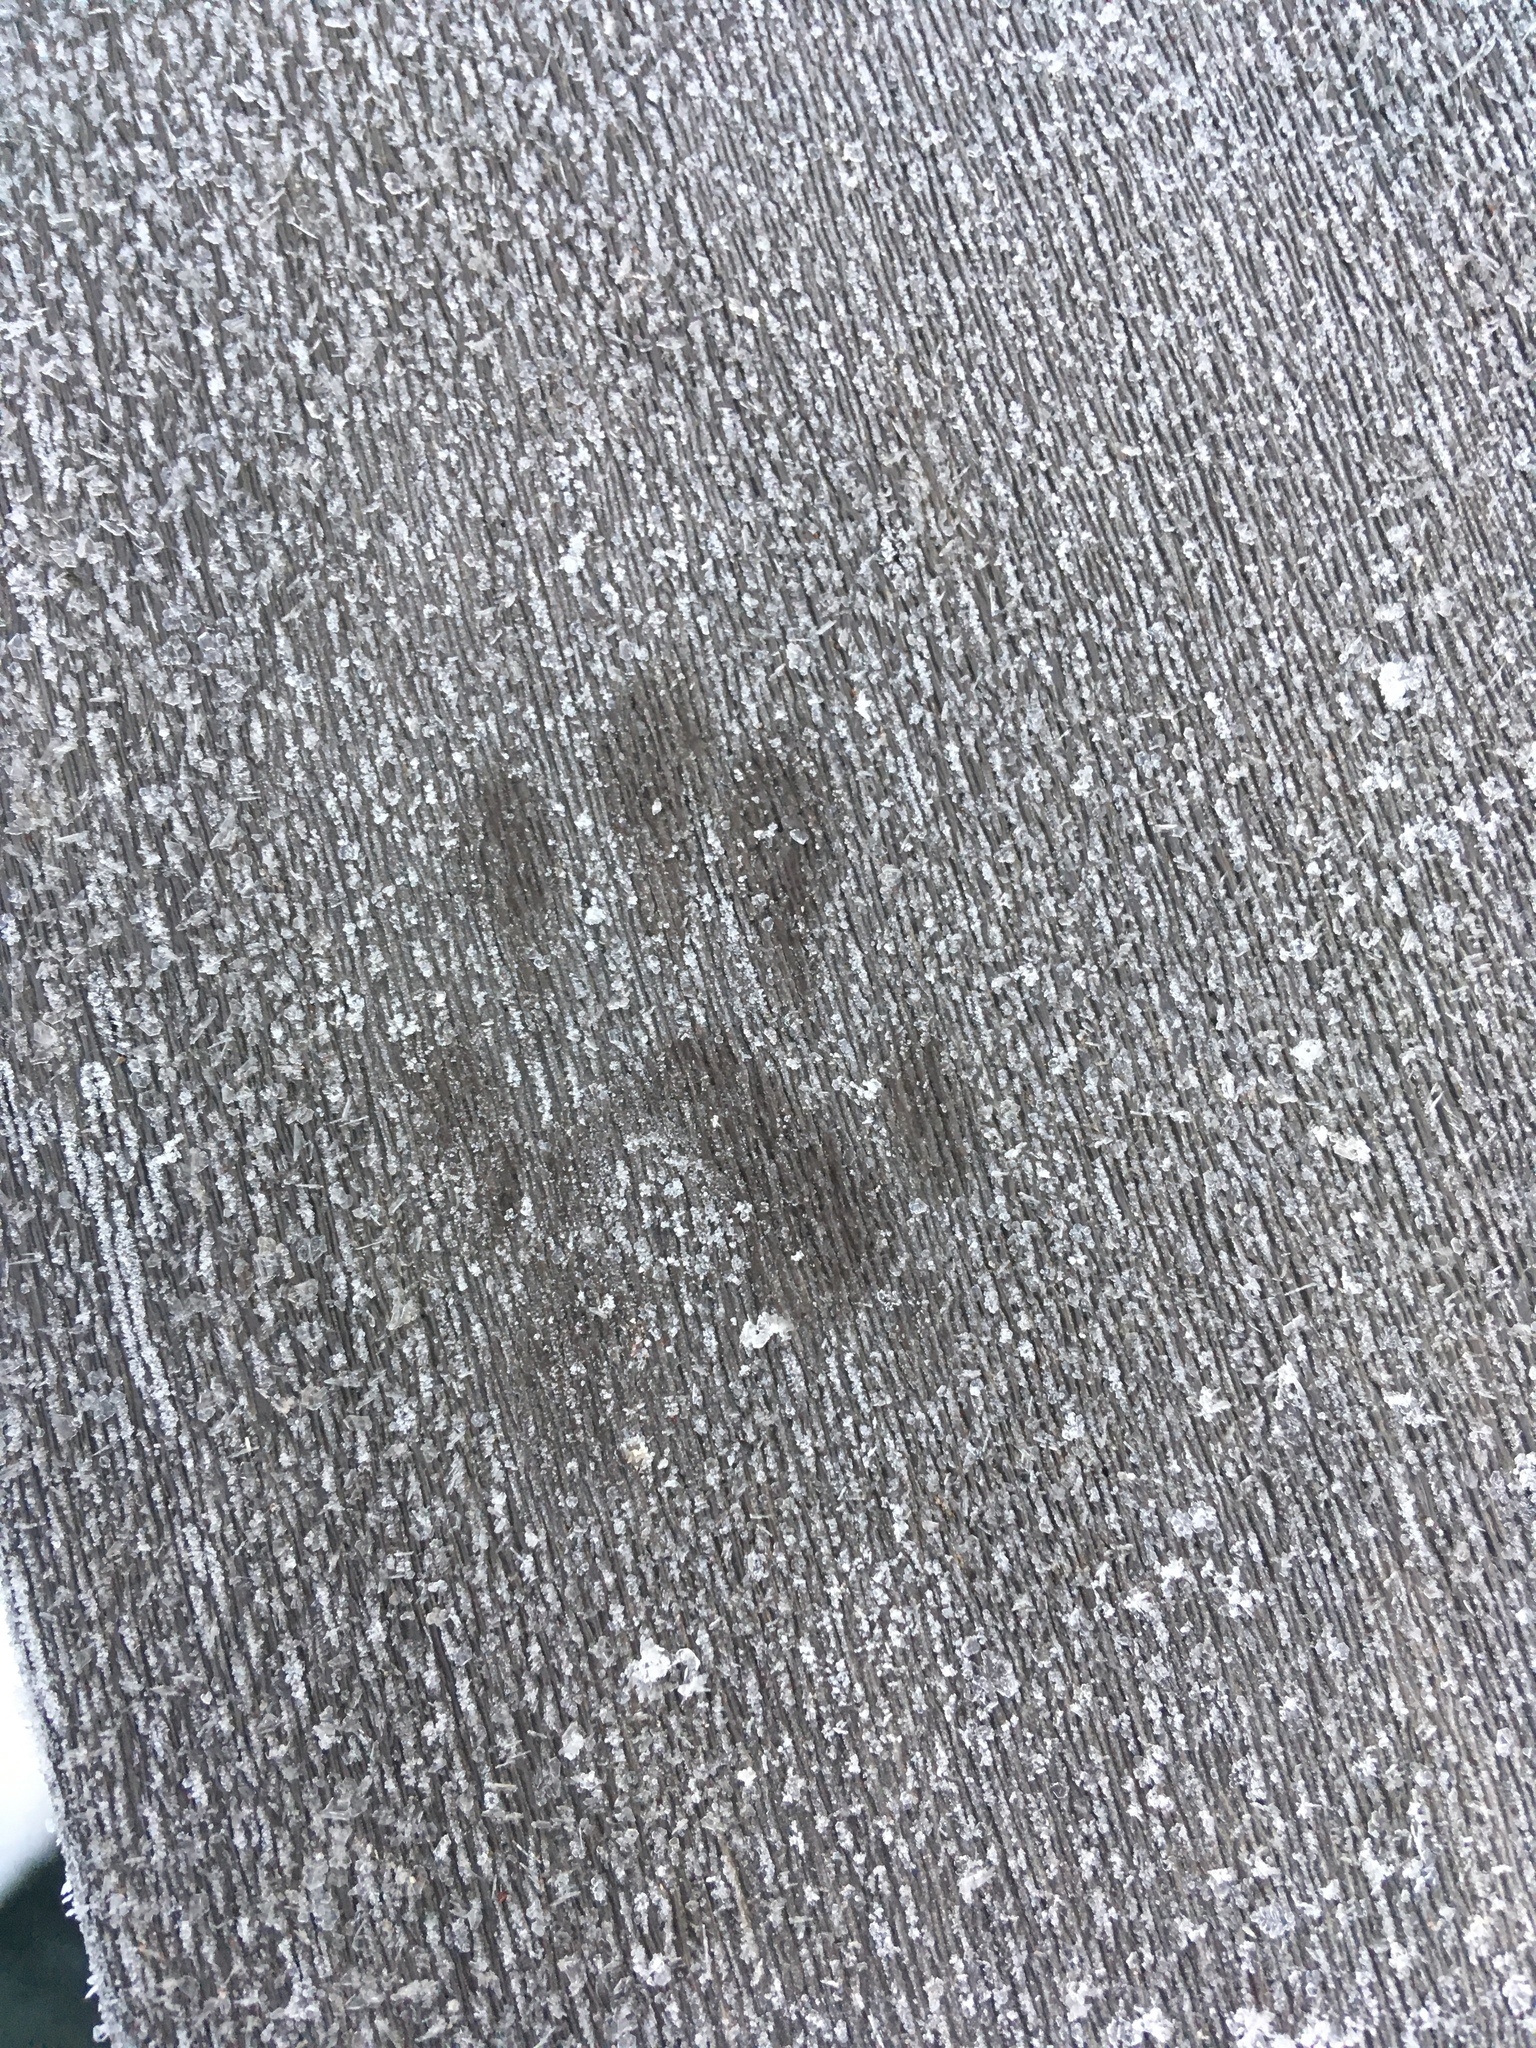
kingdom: Animalia
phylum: Chordata
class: Mammalia
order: Carnivora
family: Procyonidae
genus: Procyon
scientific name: Procyon lotor
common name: Raccoon
